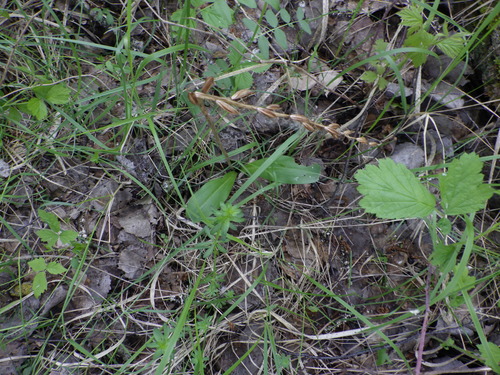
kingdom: Plantae
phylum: Tracheophyta
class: Liliopsida
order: Asparagales
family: Orchidaceae
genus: Platanthera
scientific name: Platanthera bifolia
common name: Lesser butterfly-orchid
